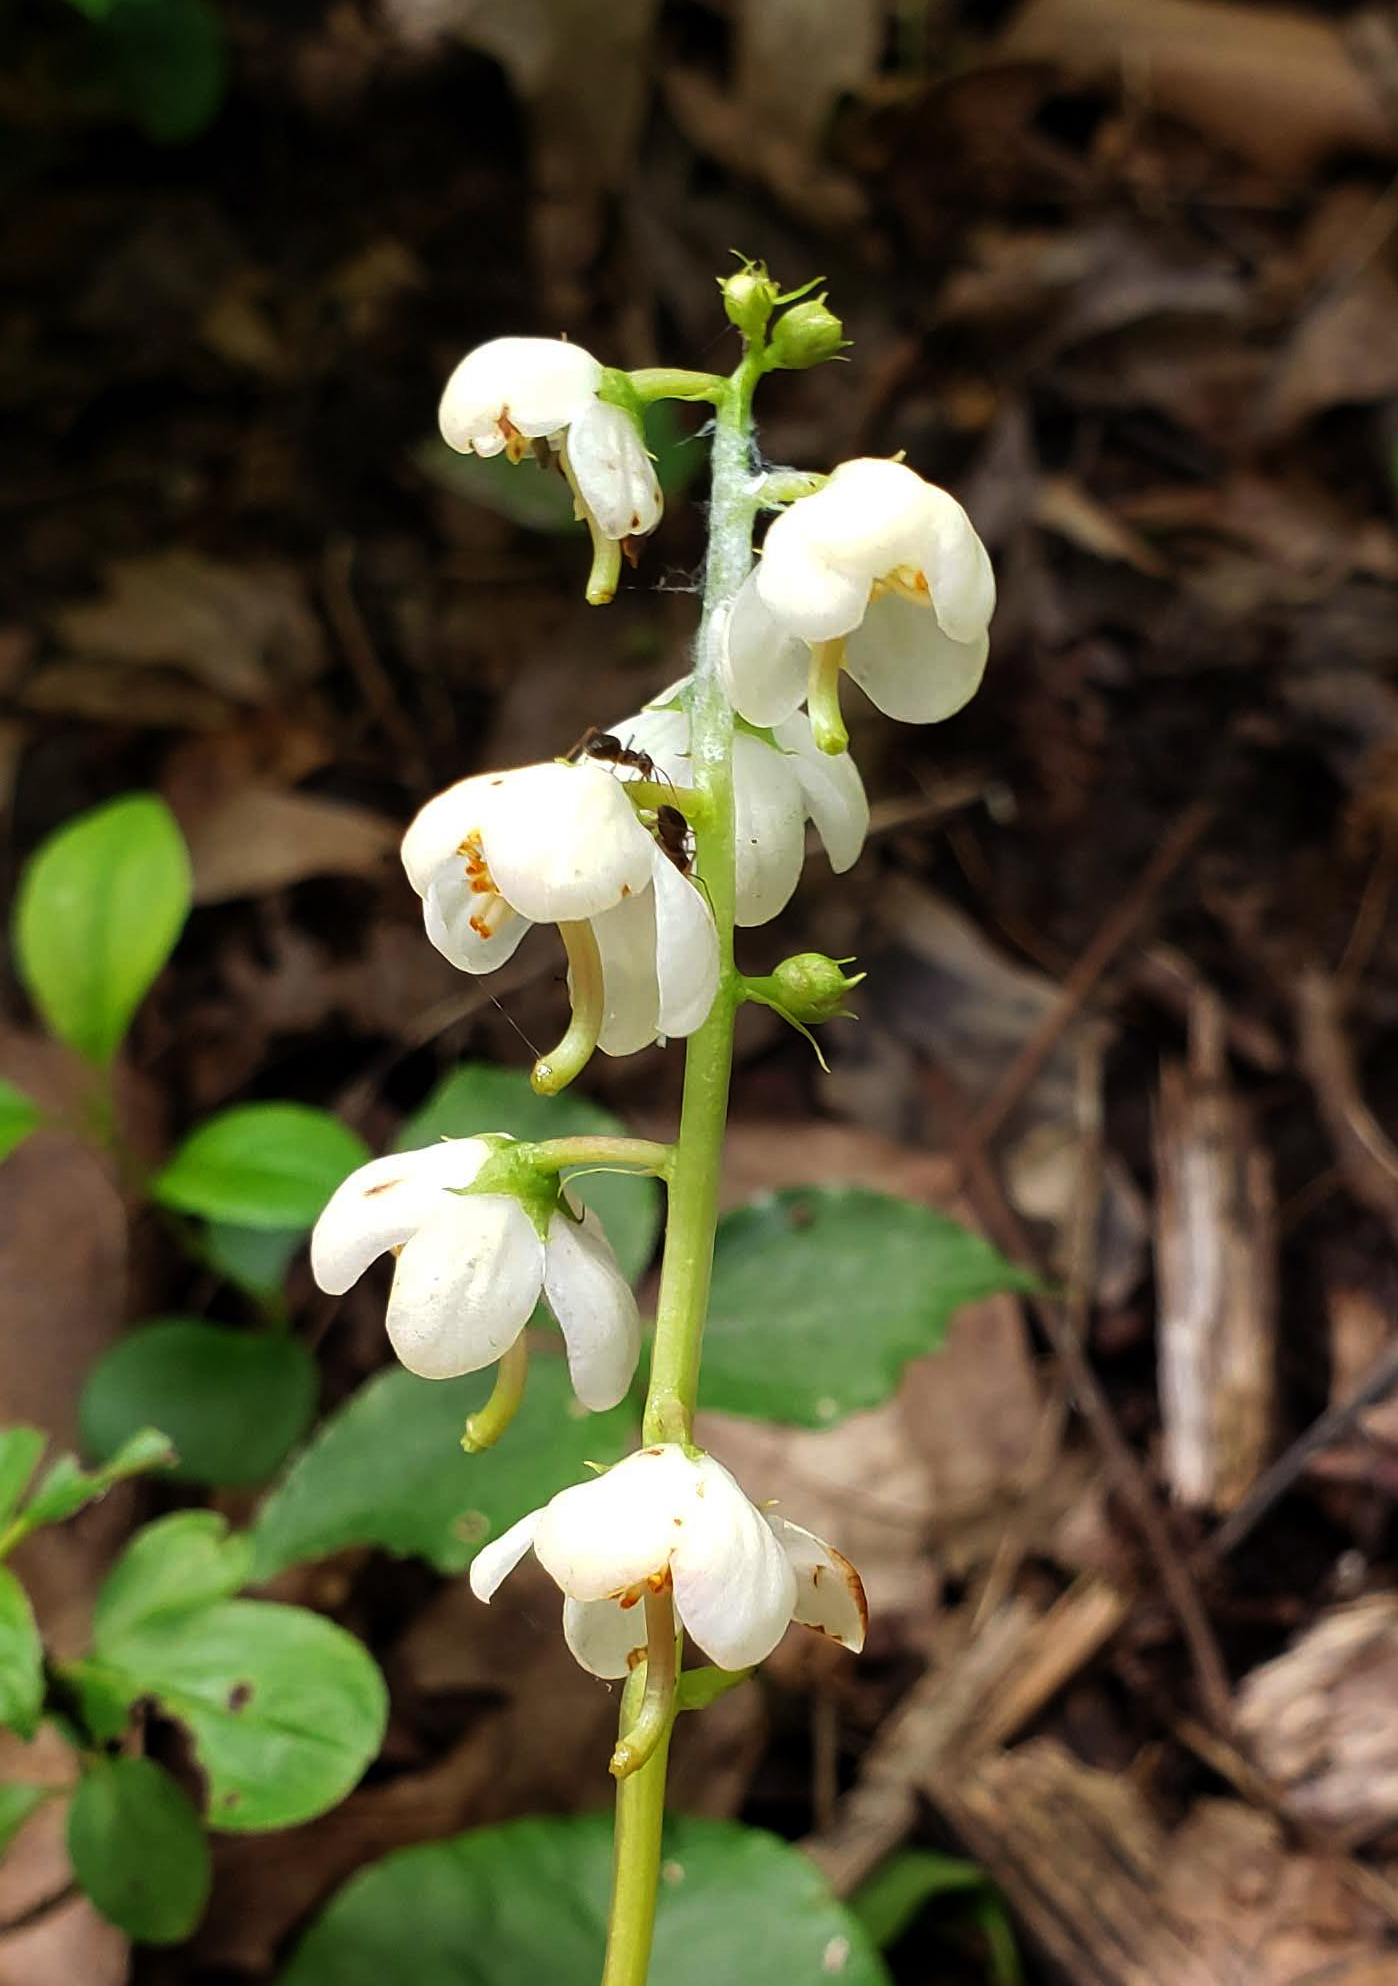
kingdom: Plantae
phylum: Tracheophyta
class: Magnoliopsida
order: Ericales
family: Ericaceae
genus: Pyrola
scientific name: Pyrola elliptica
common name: Shinleaf
